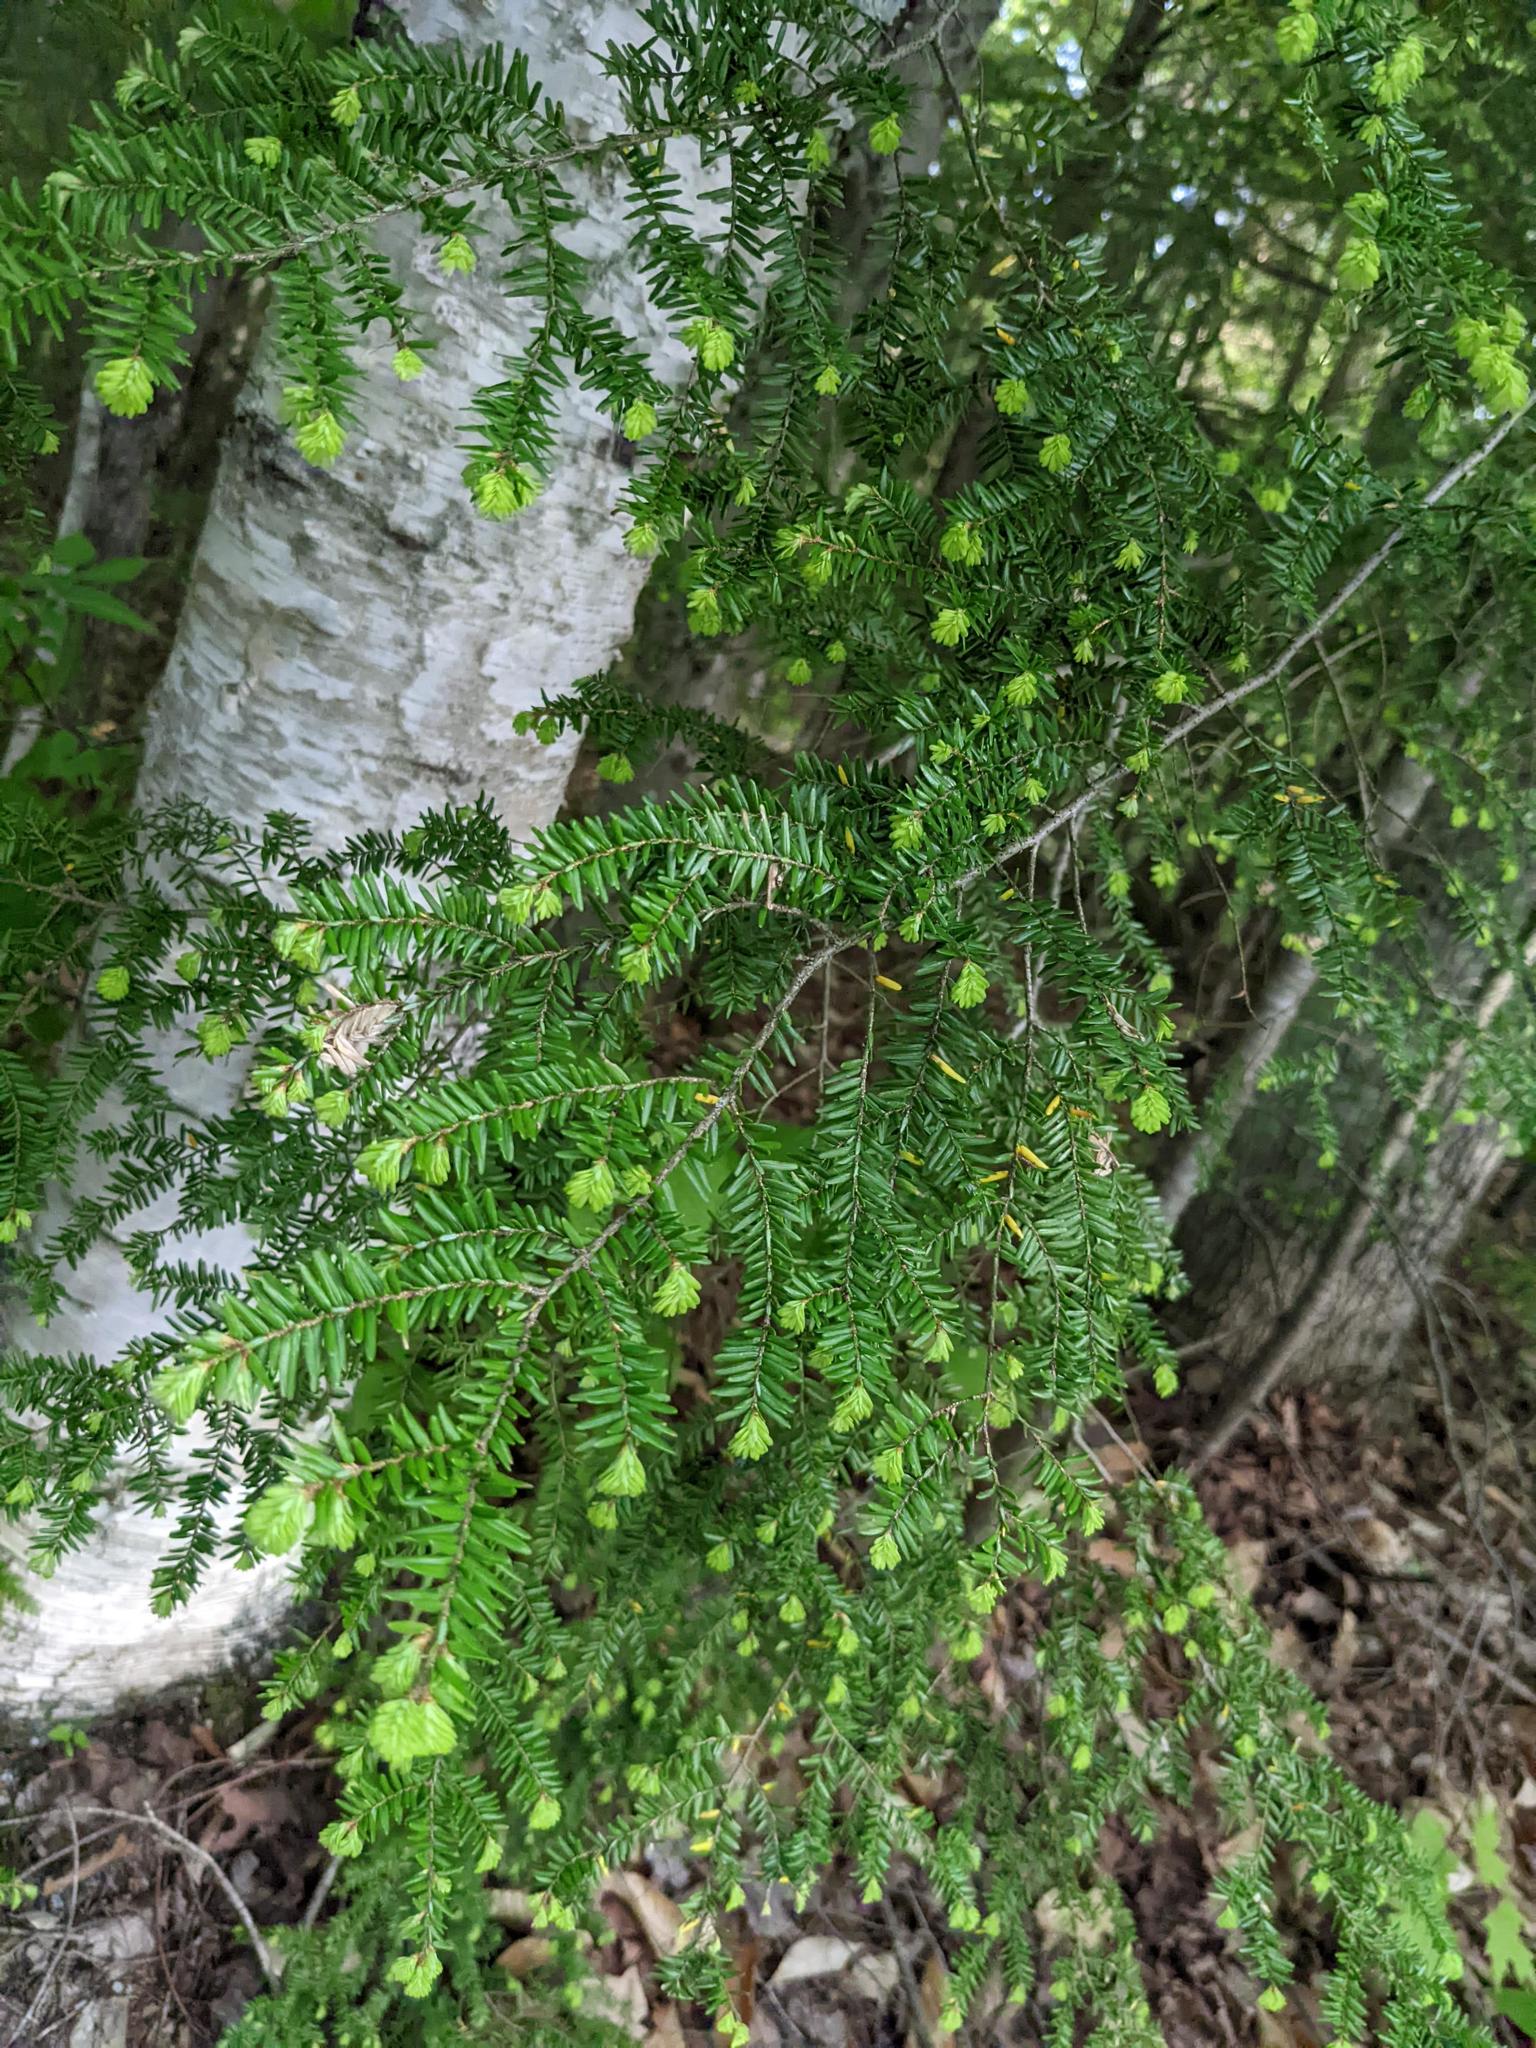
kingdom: Plantae
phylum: Tracheophyta
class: Pinopsida
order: Pinales
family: Pinaceae
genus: Tsuga
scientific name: Tsuga canadensis
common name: Eastern hemlock
